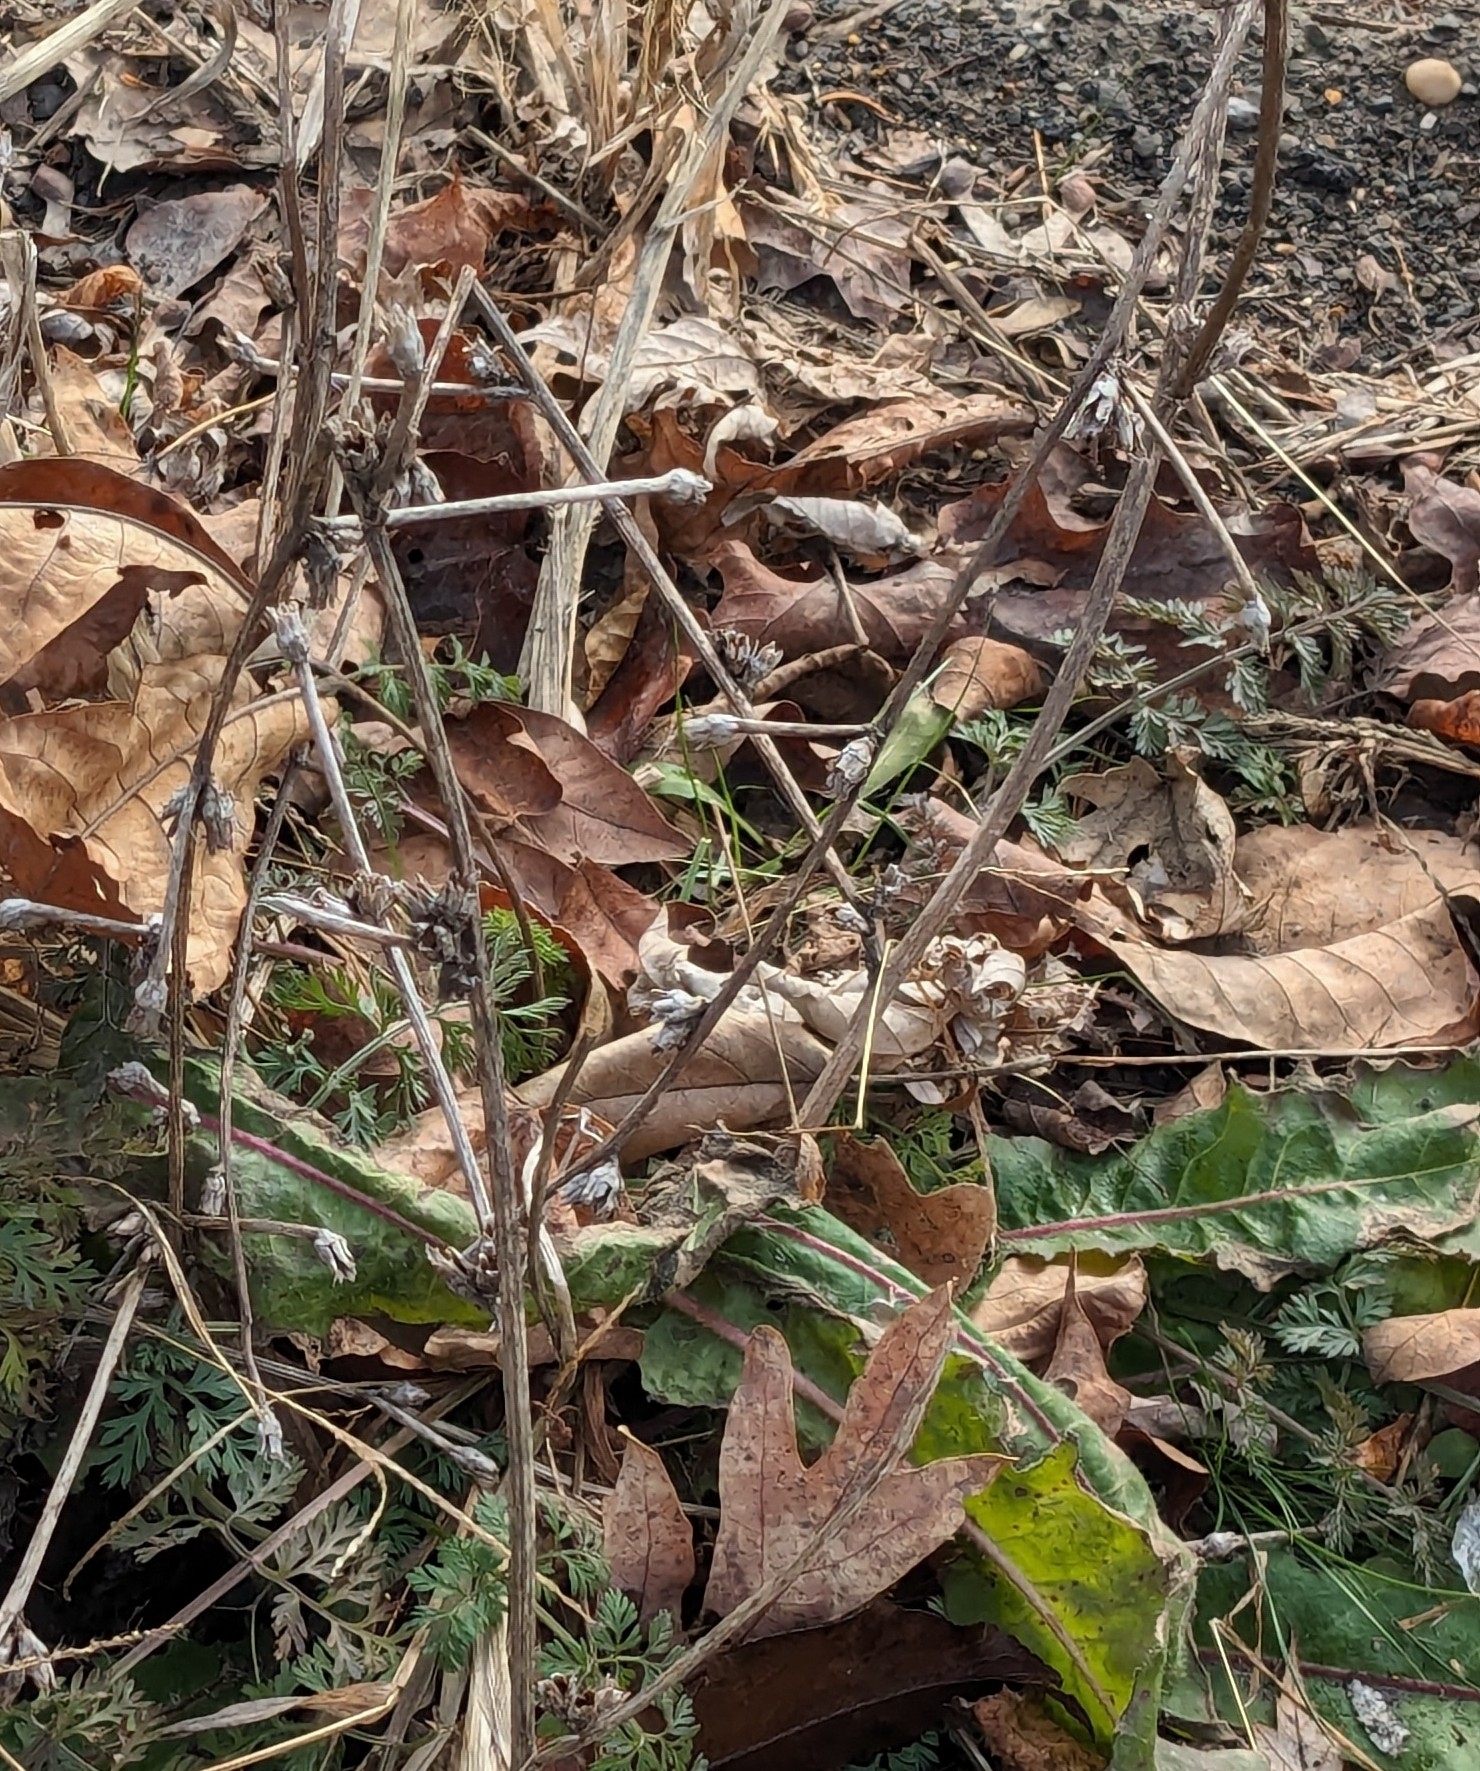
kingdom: Plantae
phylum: Tracheophyta
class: Magnoliopsida
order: Asterales
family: Asteraceae
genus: Cichorium
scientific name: Cichorium intybus
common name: Chicory
